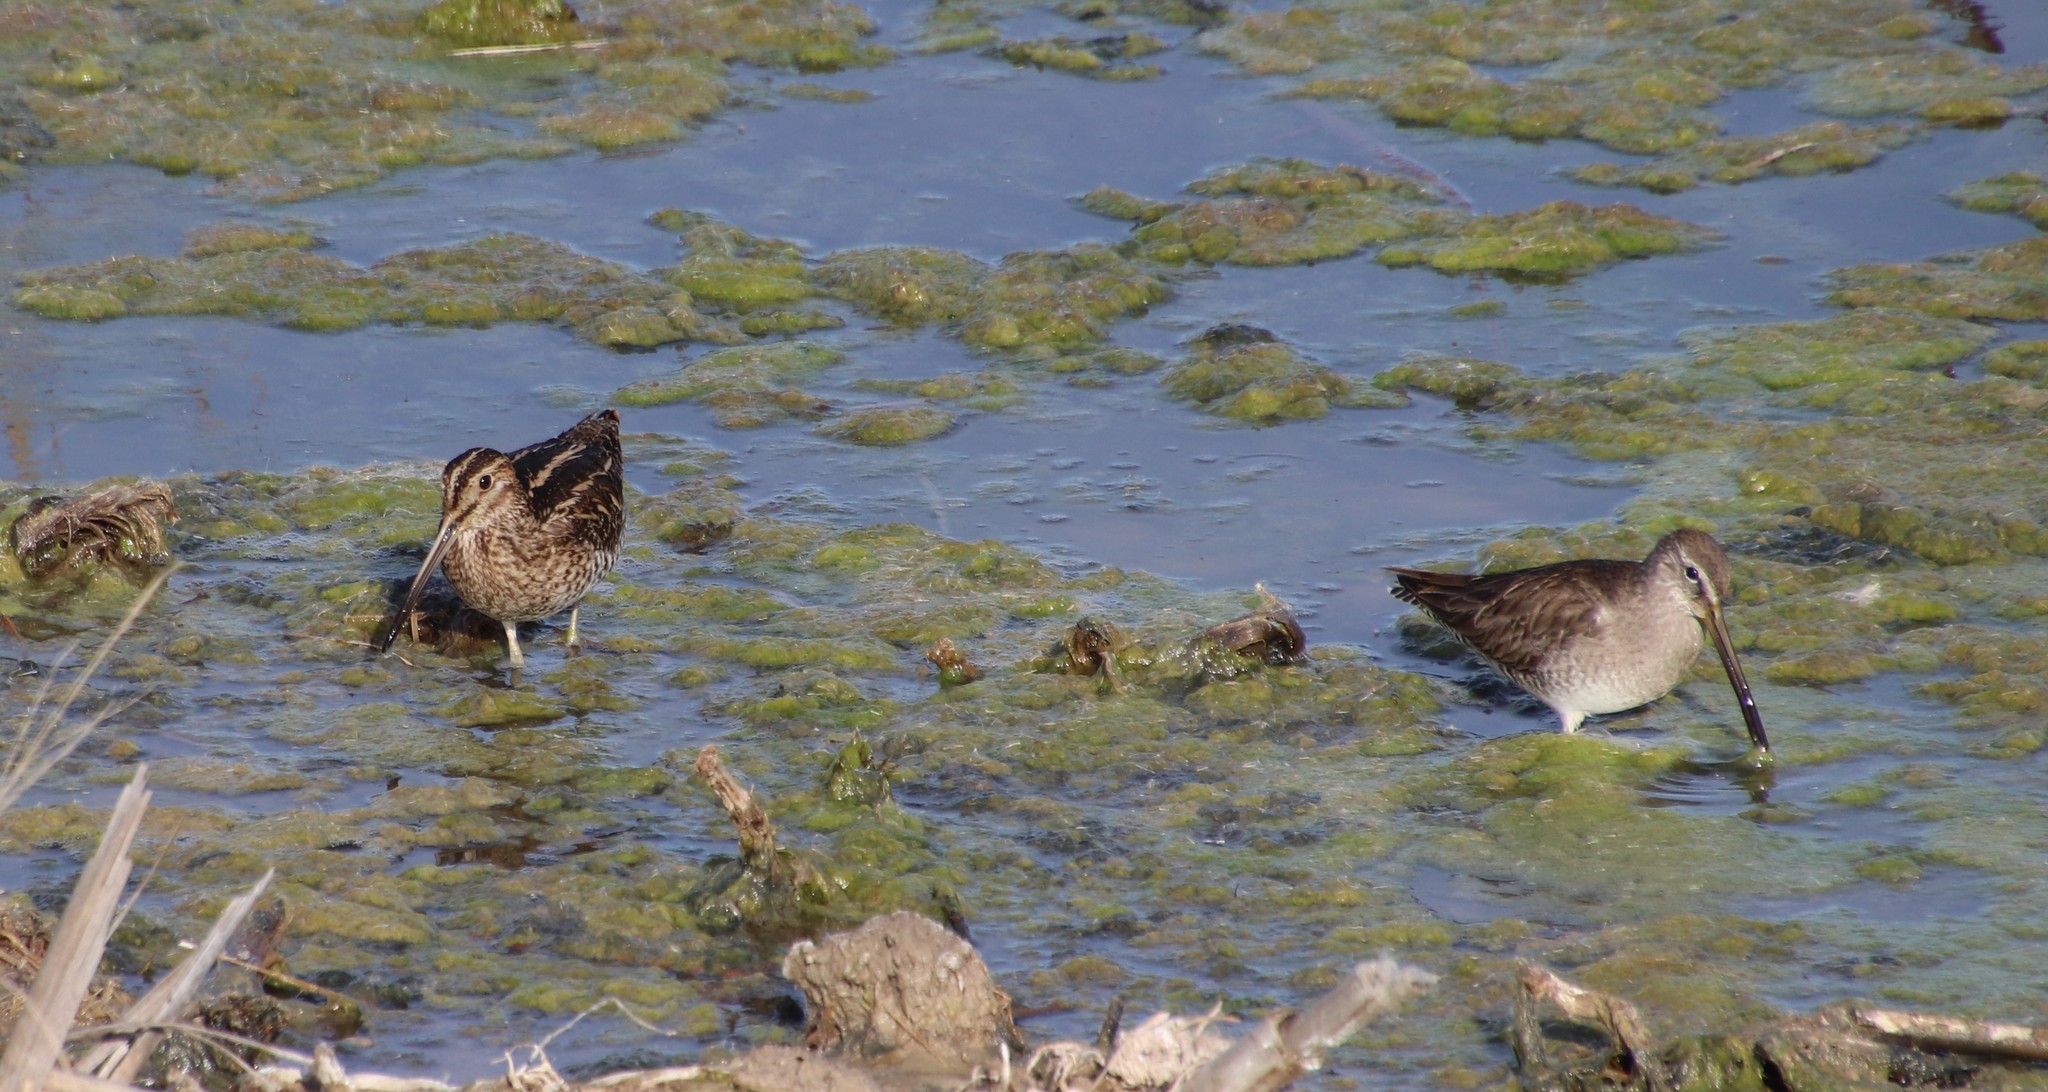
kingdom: Animalia
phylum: Chordata
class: Aves
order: Charadriiformes
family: Scolopacidae
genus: Limnodromus
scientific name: Limnodromus scolopaceus
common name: Long-billed dowitcher
